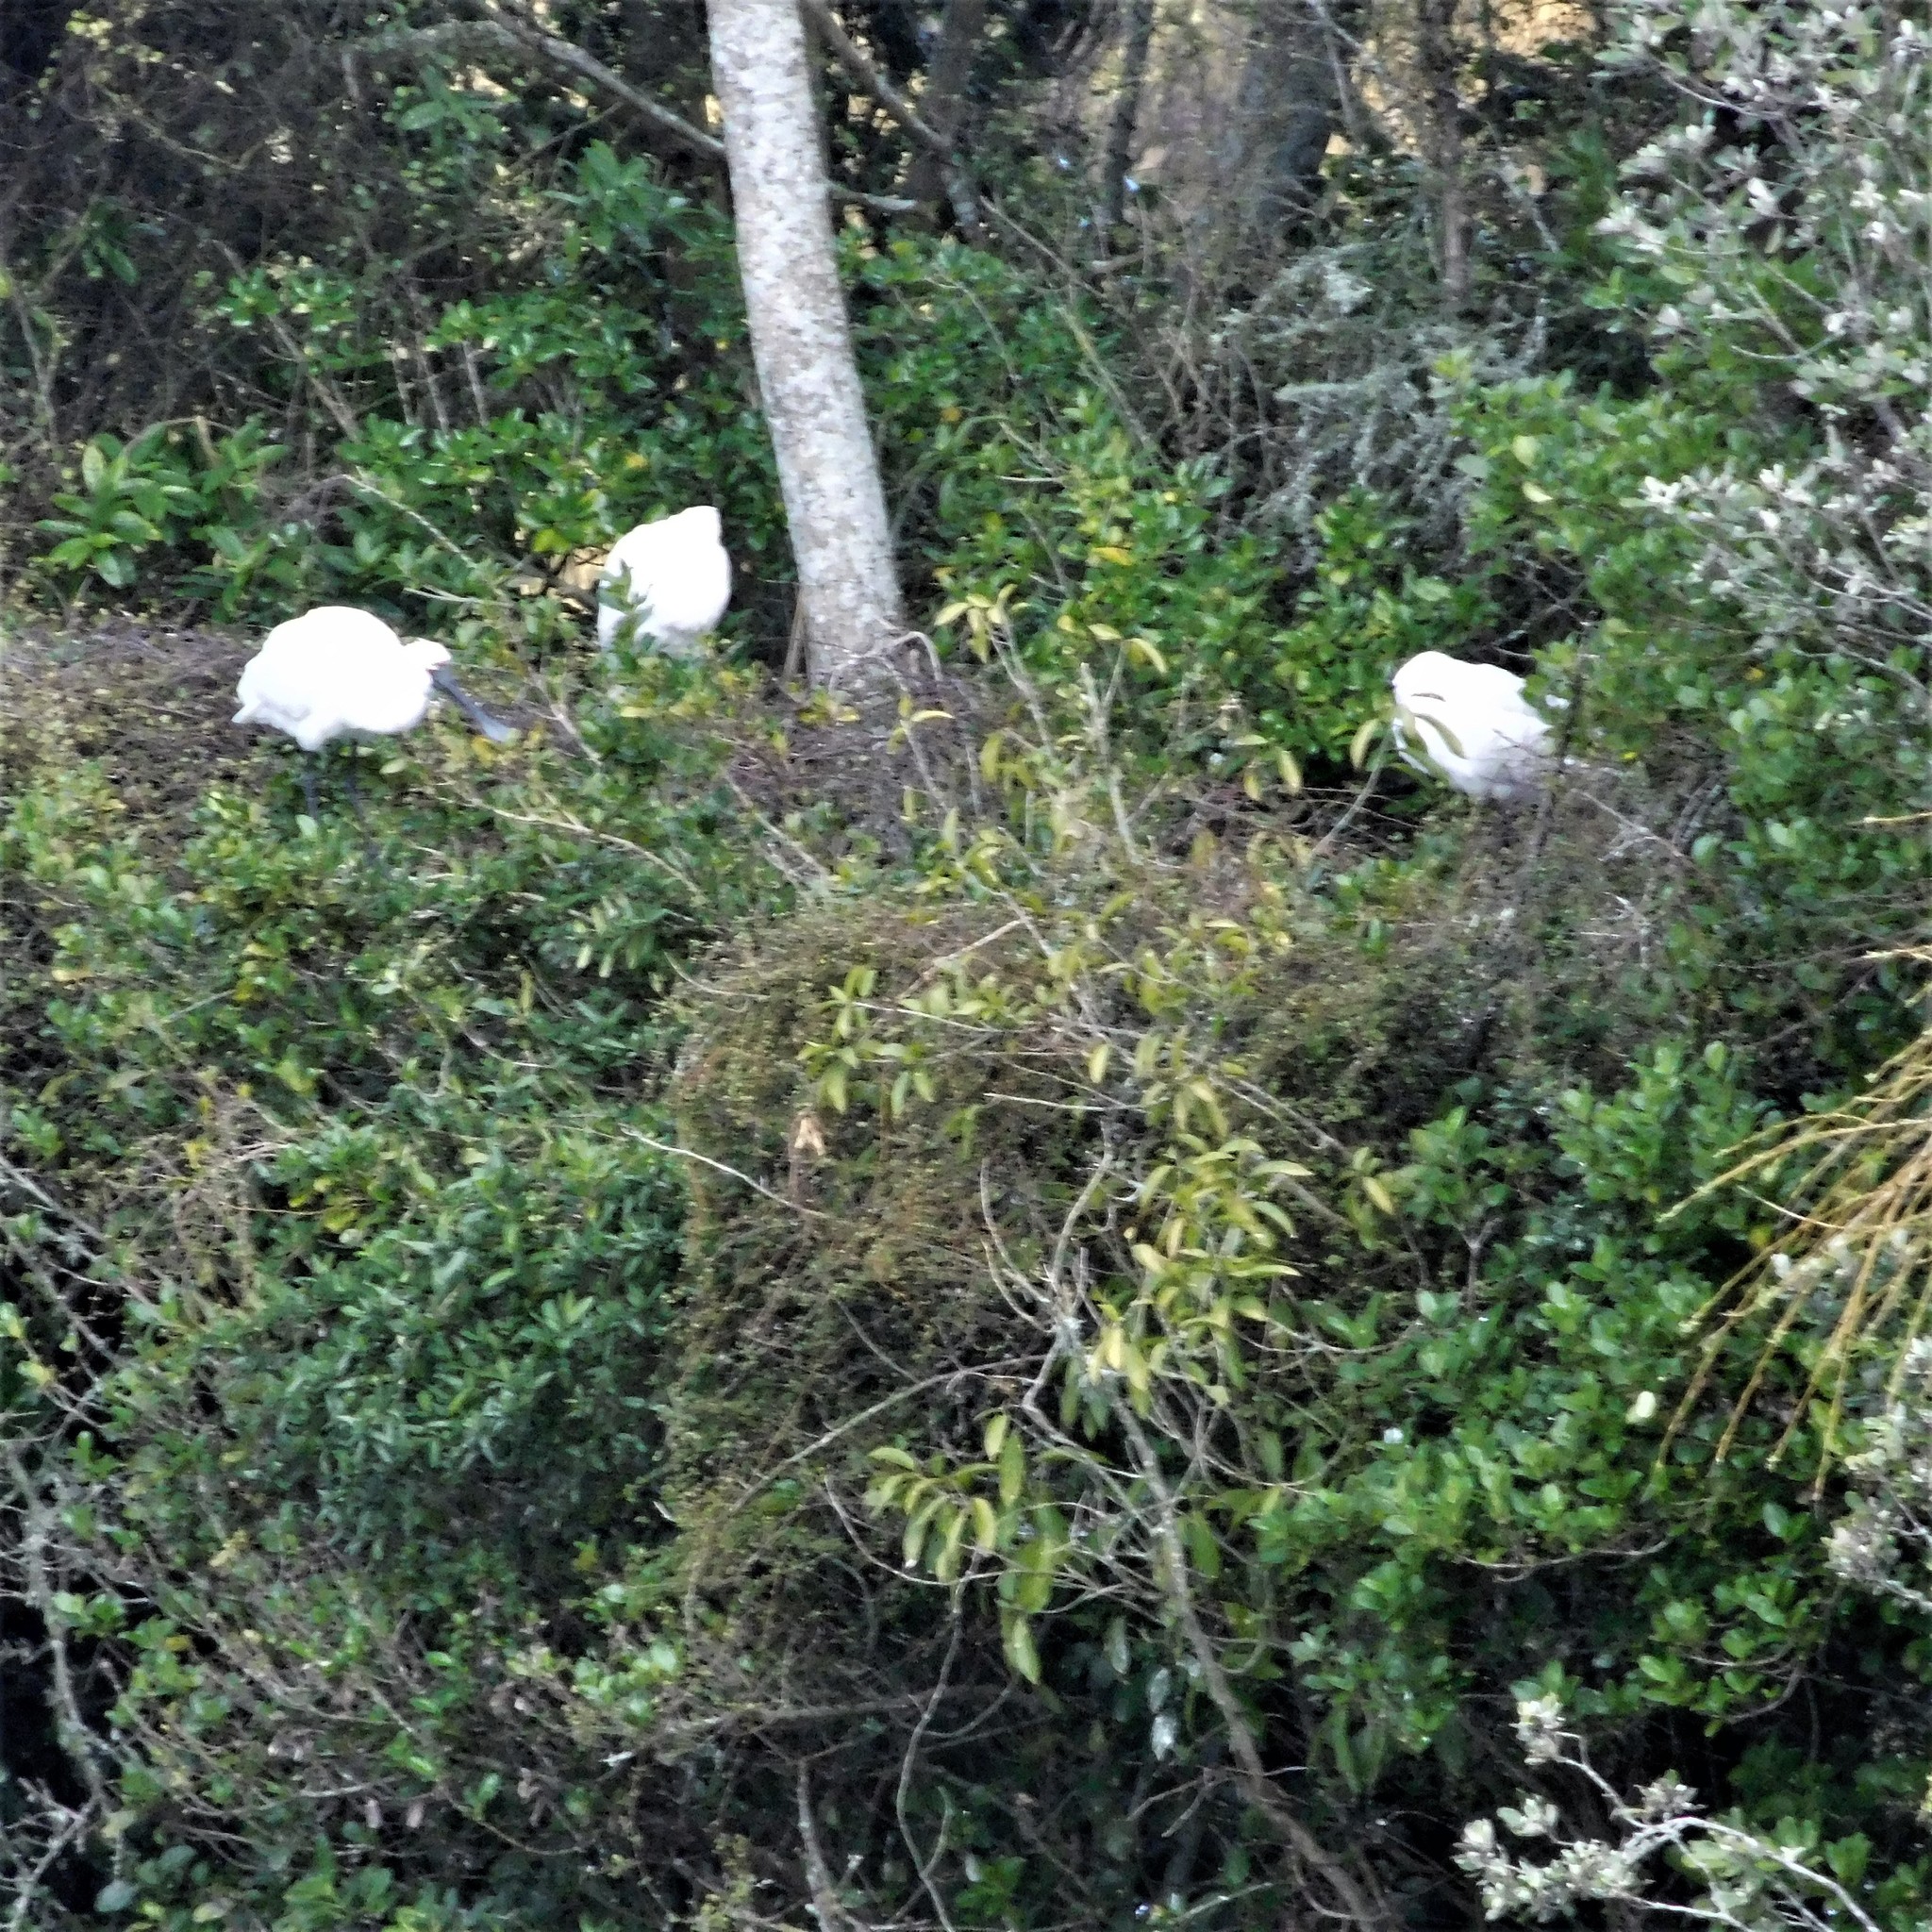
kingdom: Animalia
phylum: Chordata
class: Aves
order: Pelecaniformes
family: Threskiornithidae
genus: Platalea
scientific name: Platalea regia
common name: Royal spoonbill
